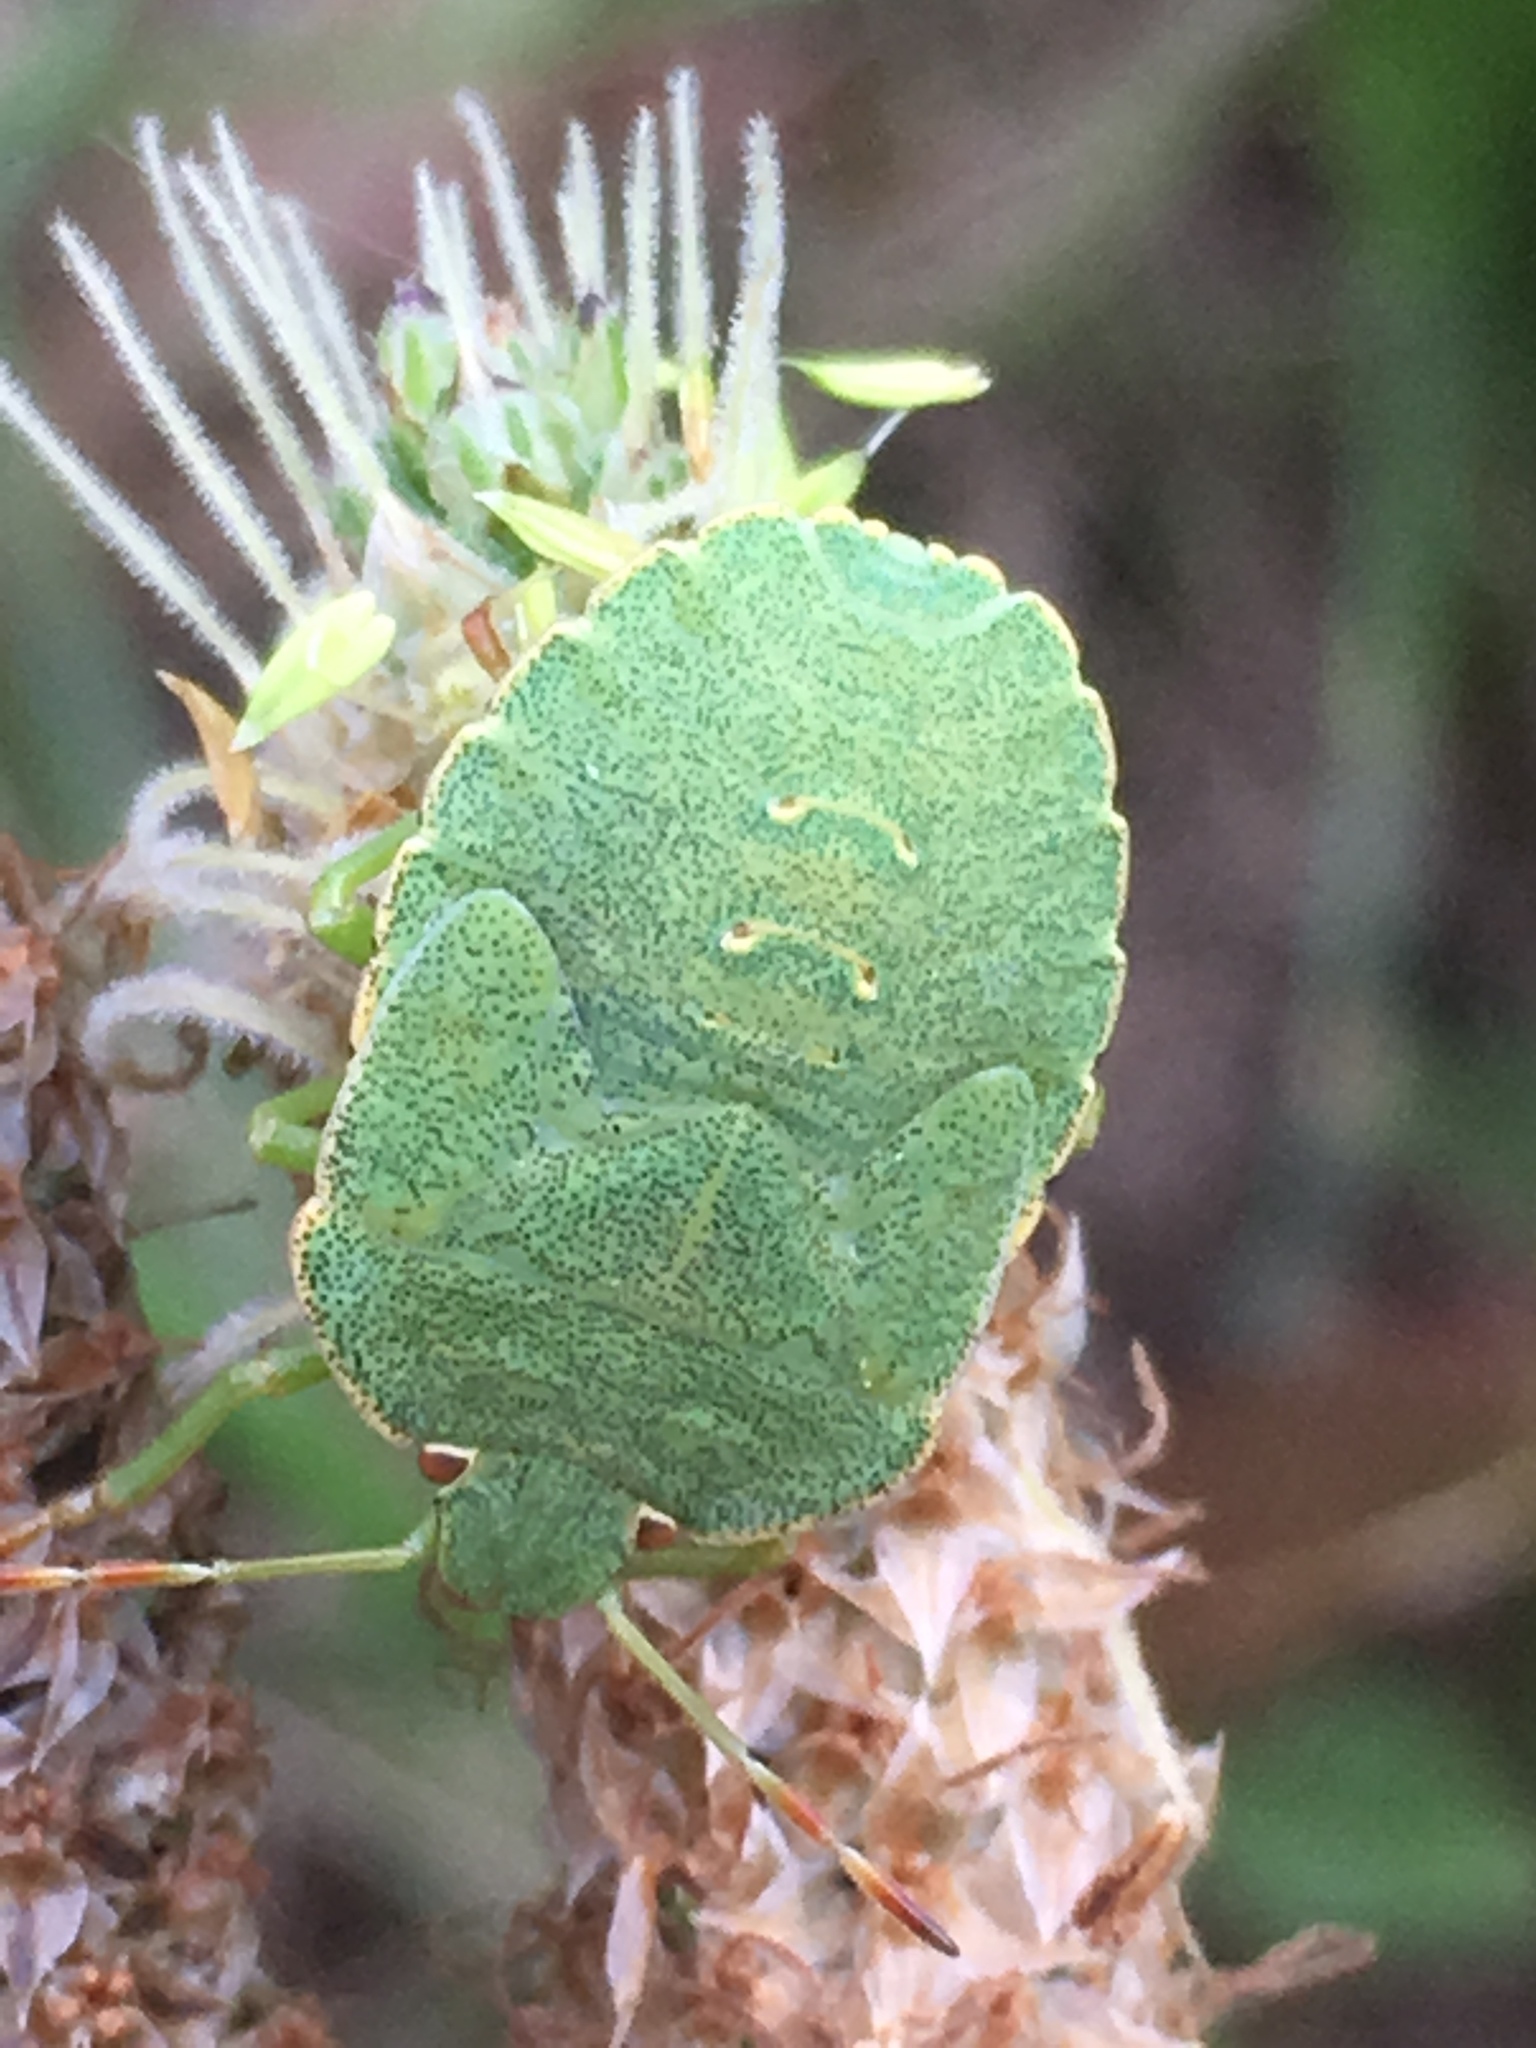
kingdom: Animalia
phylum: Arthropoda
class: Insecta
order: Hemiptera
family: Pentatomidae
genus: Palomena
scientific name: Palomena prasina
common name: Green shieldbug
